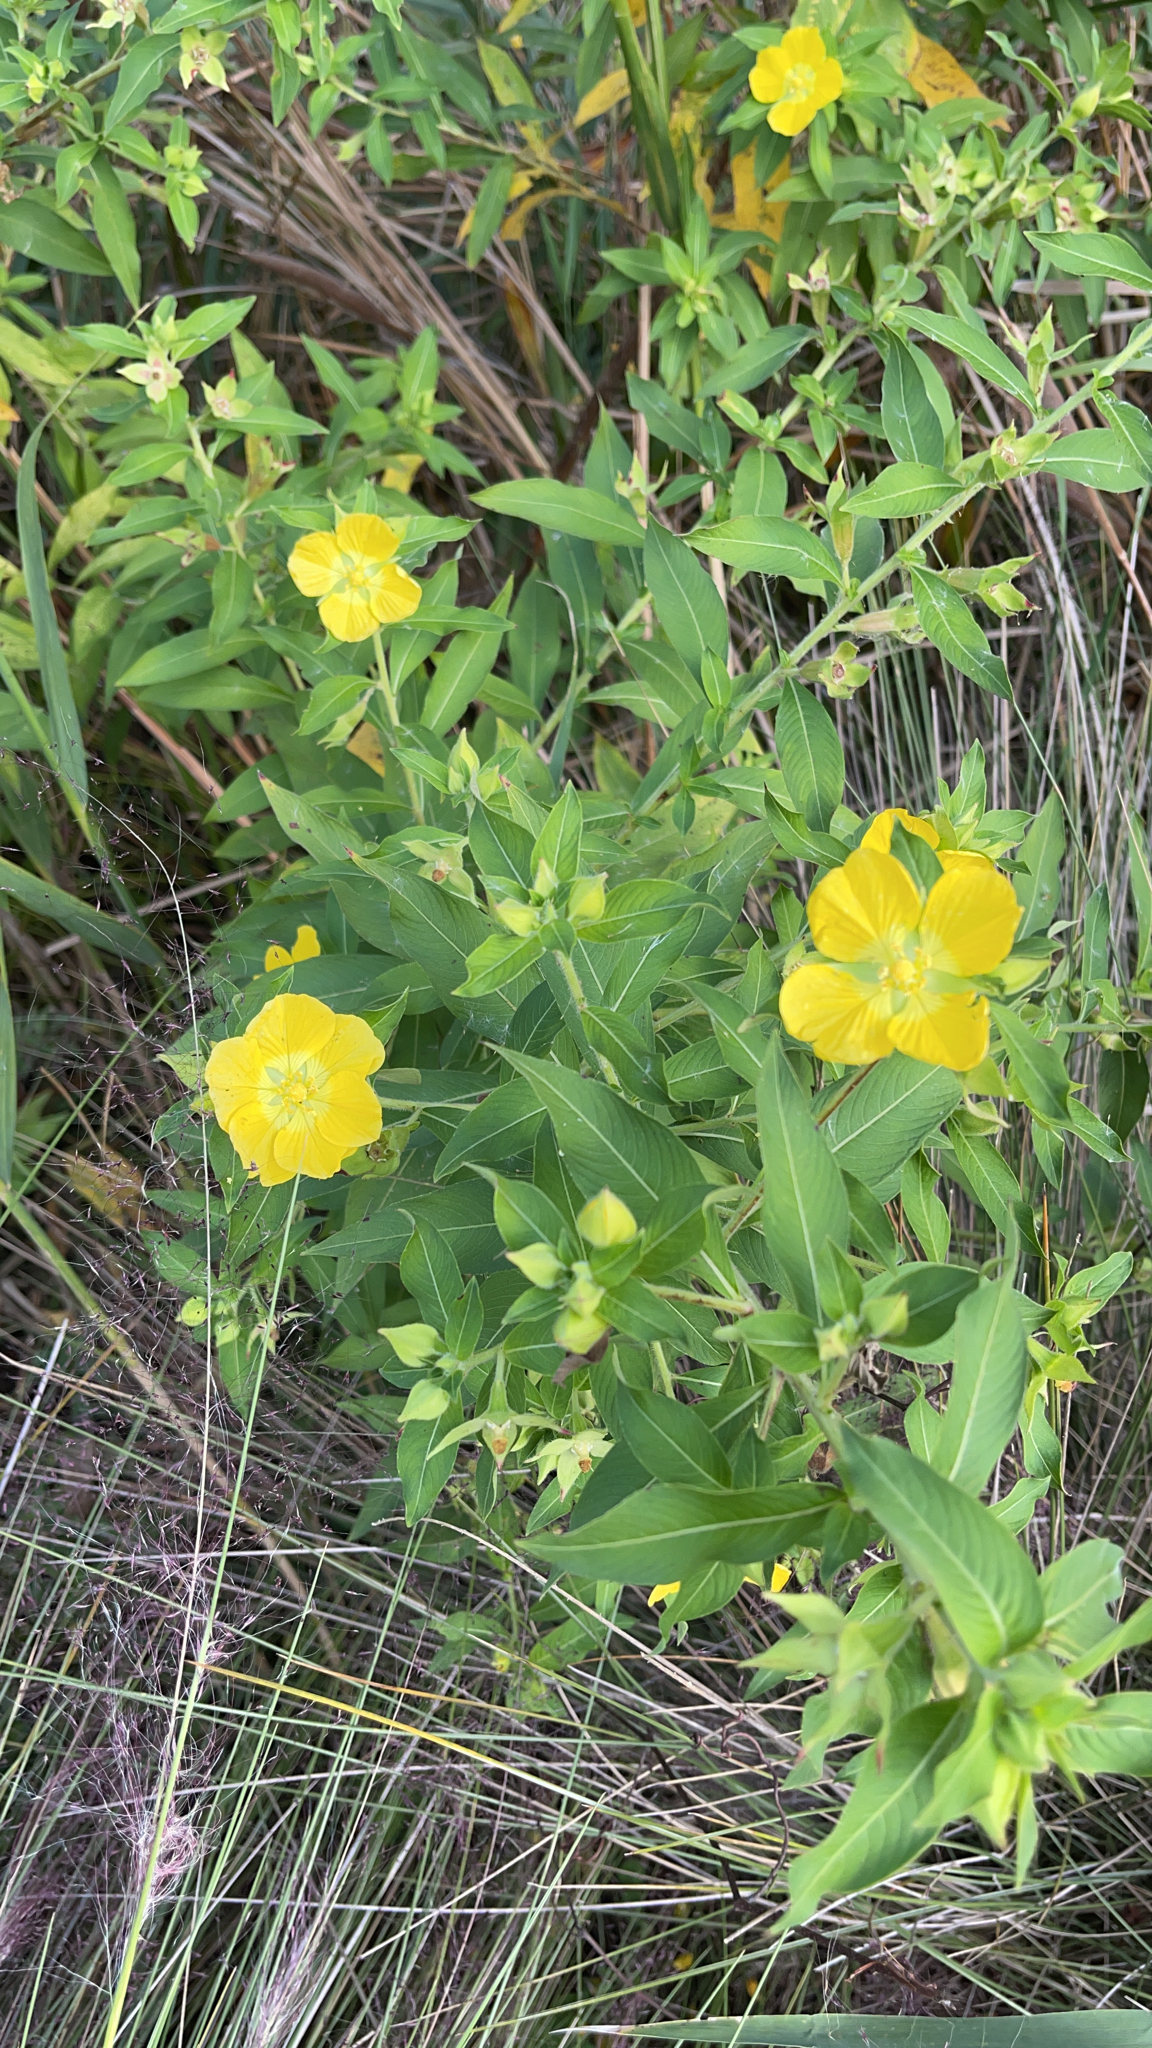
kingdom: Plantae
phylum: Tracheophyta
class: Magnoliopsida
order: Myrtales
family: Onagraceae
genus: Ludwigia
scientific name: Ludwigia peruviana
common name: Peruvian primrose-willow
